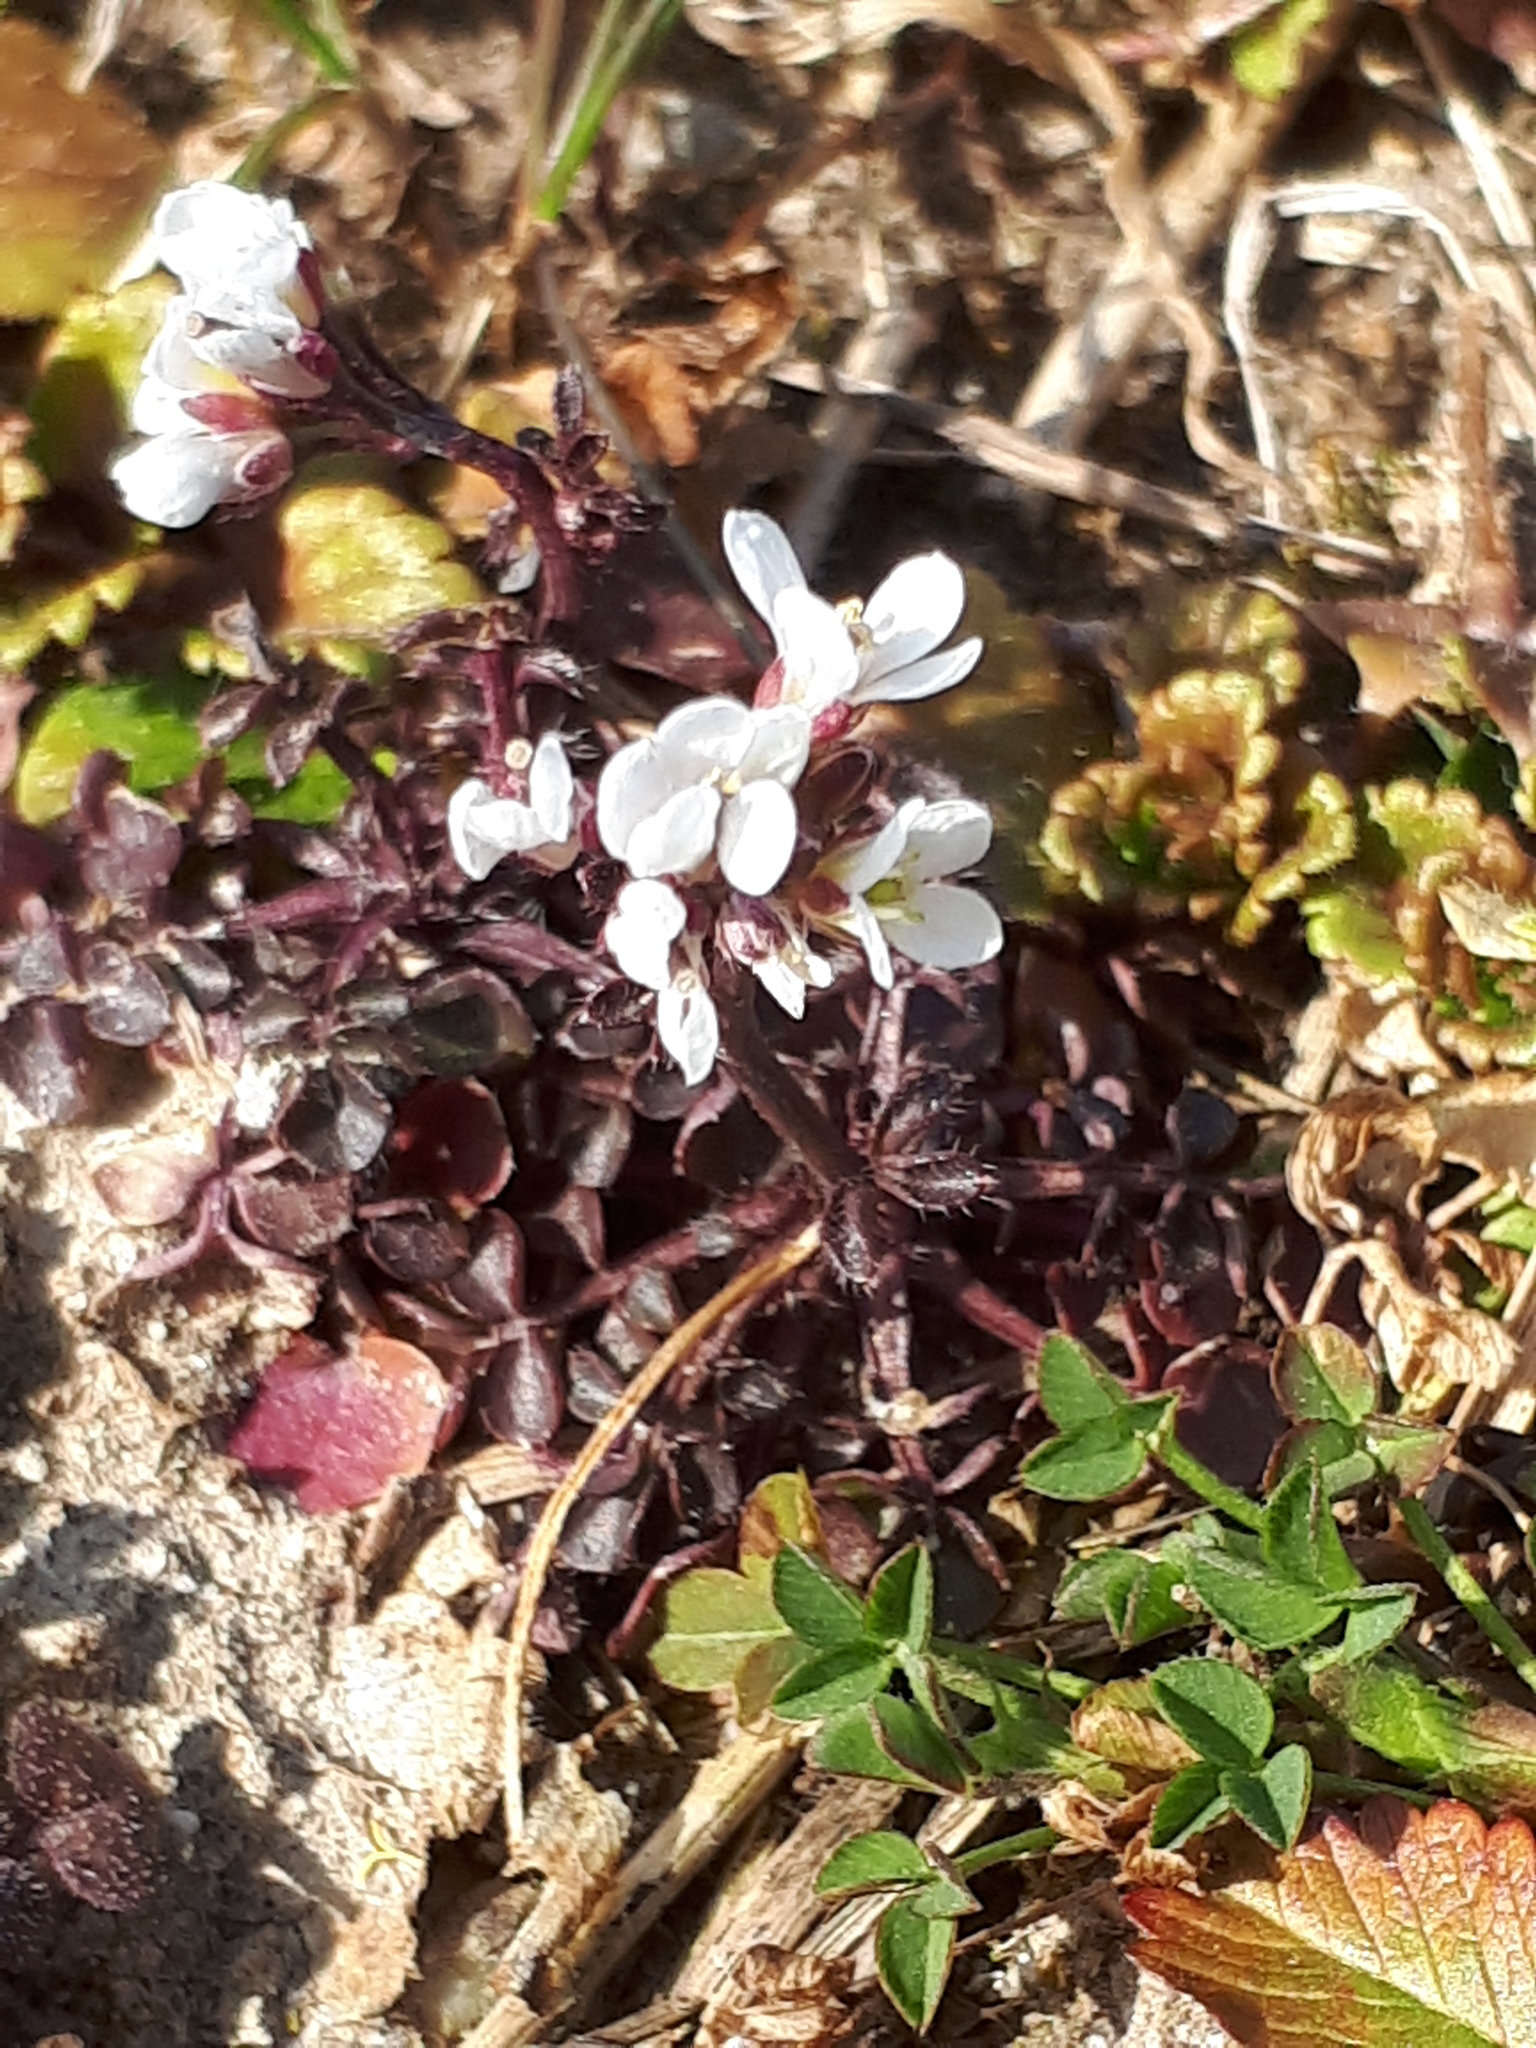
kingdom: Plantae
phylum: Tracheophyta
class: Magnoliopsida
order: Brassicales
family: Brassicaceae
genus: Cardamine
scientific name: Cardamine hirsuta
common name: Hairy bittercress
